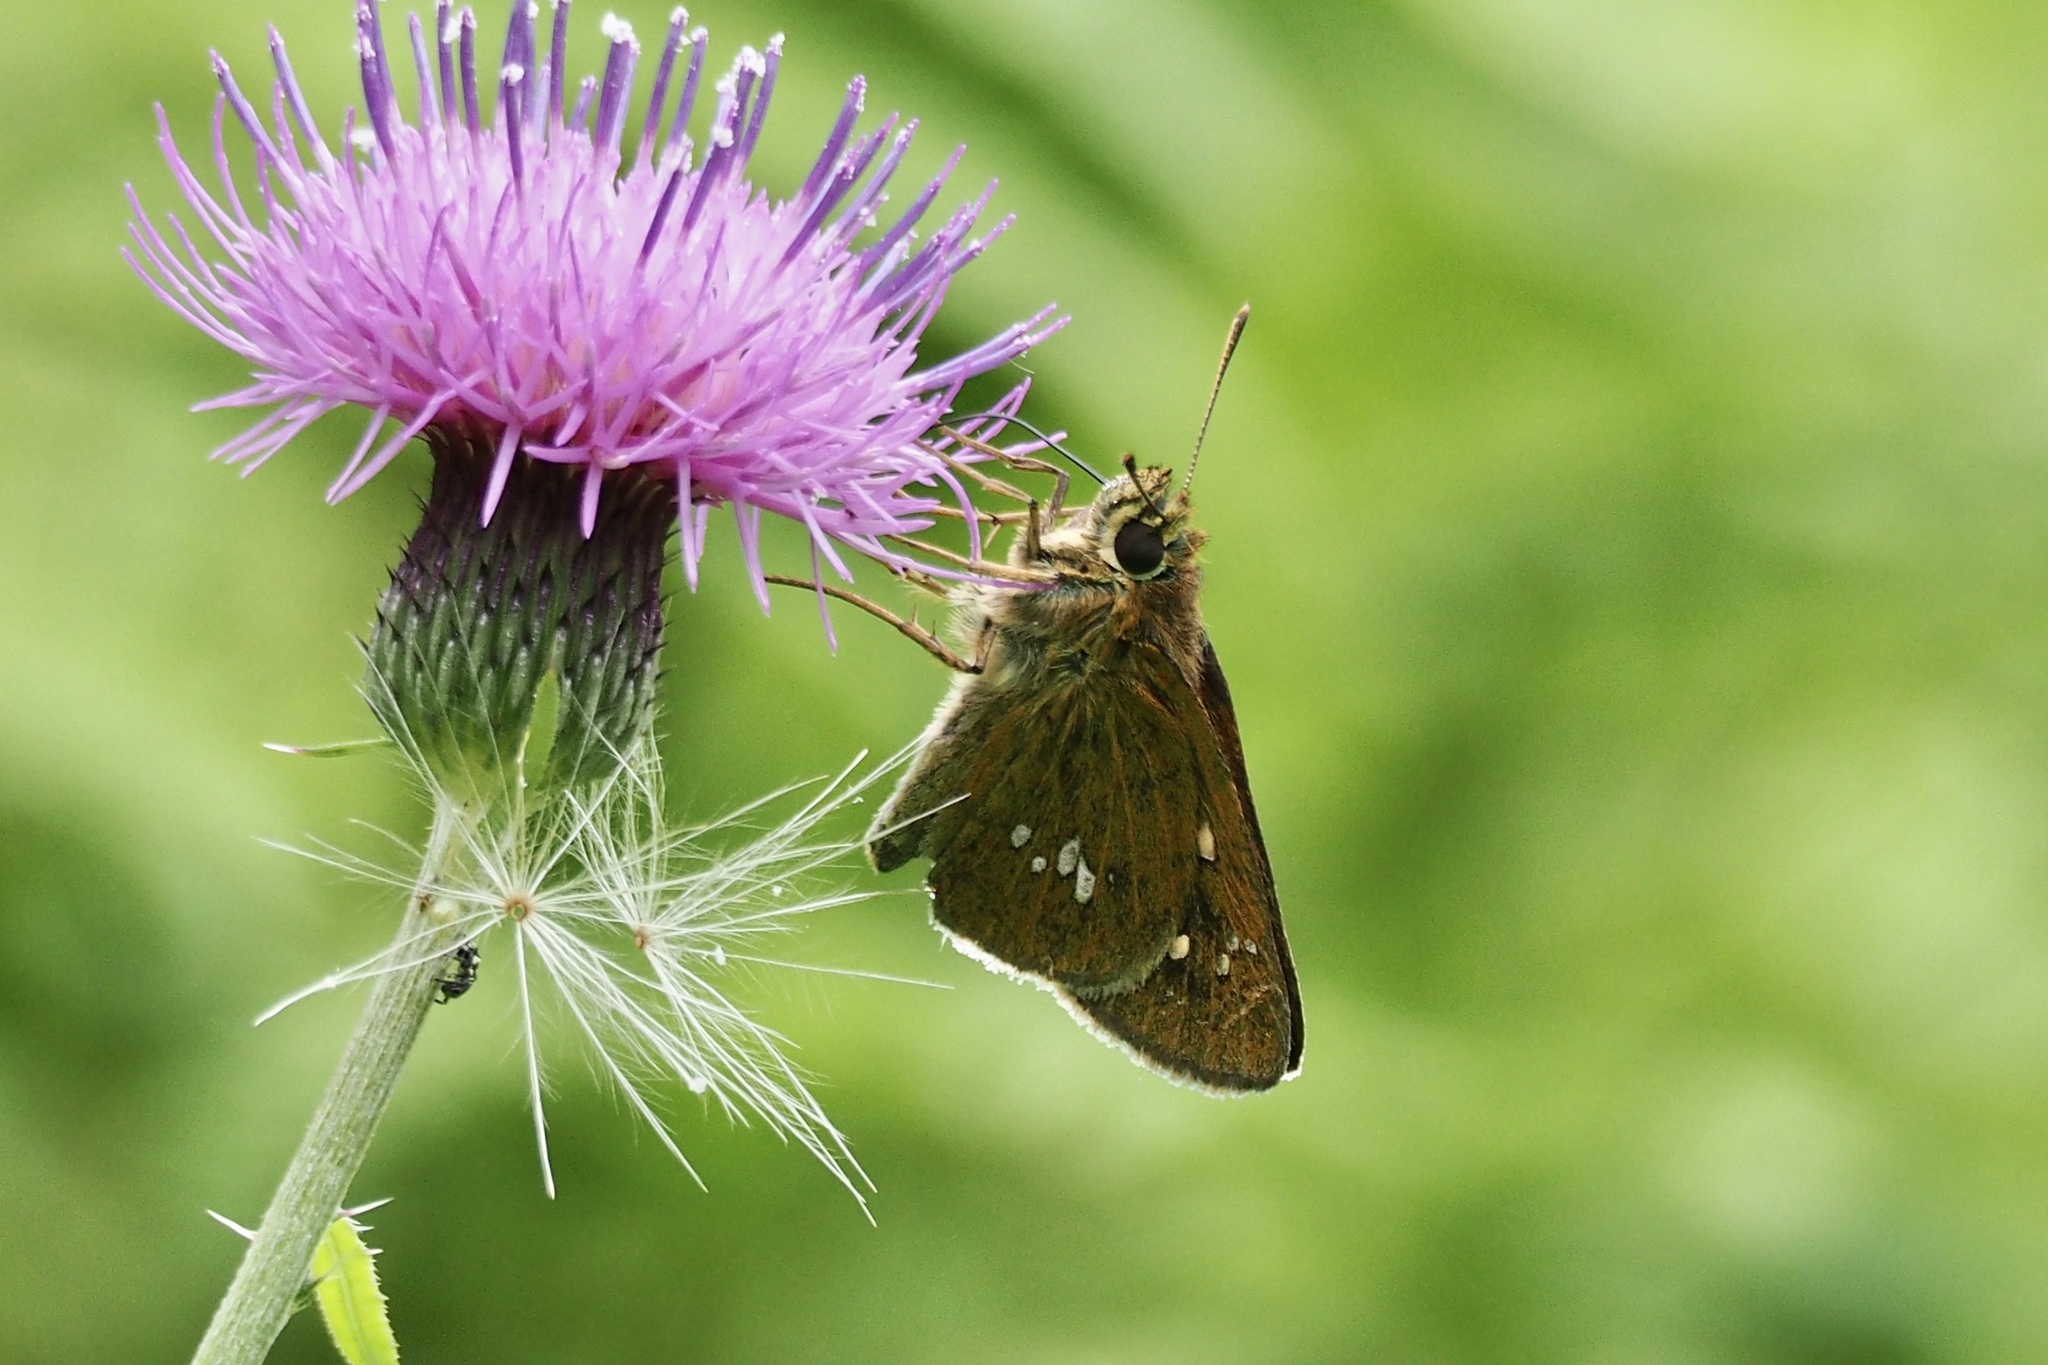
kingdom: Animalia
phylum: Arthropoda
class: Insecta
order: Lepidoptera
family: Hesperiidae
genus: Polytremis
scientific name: Polytremis pellucida
